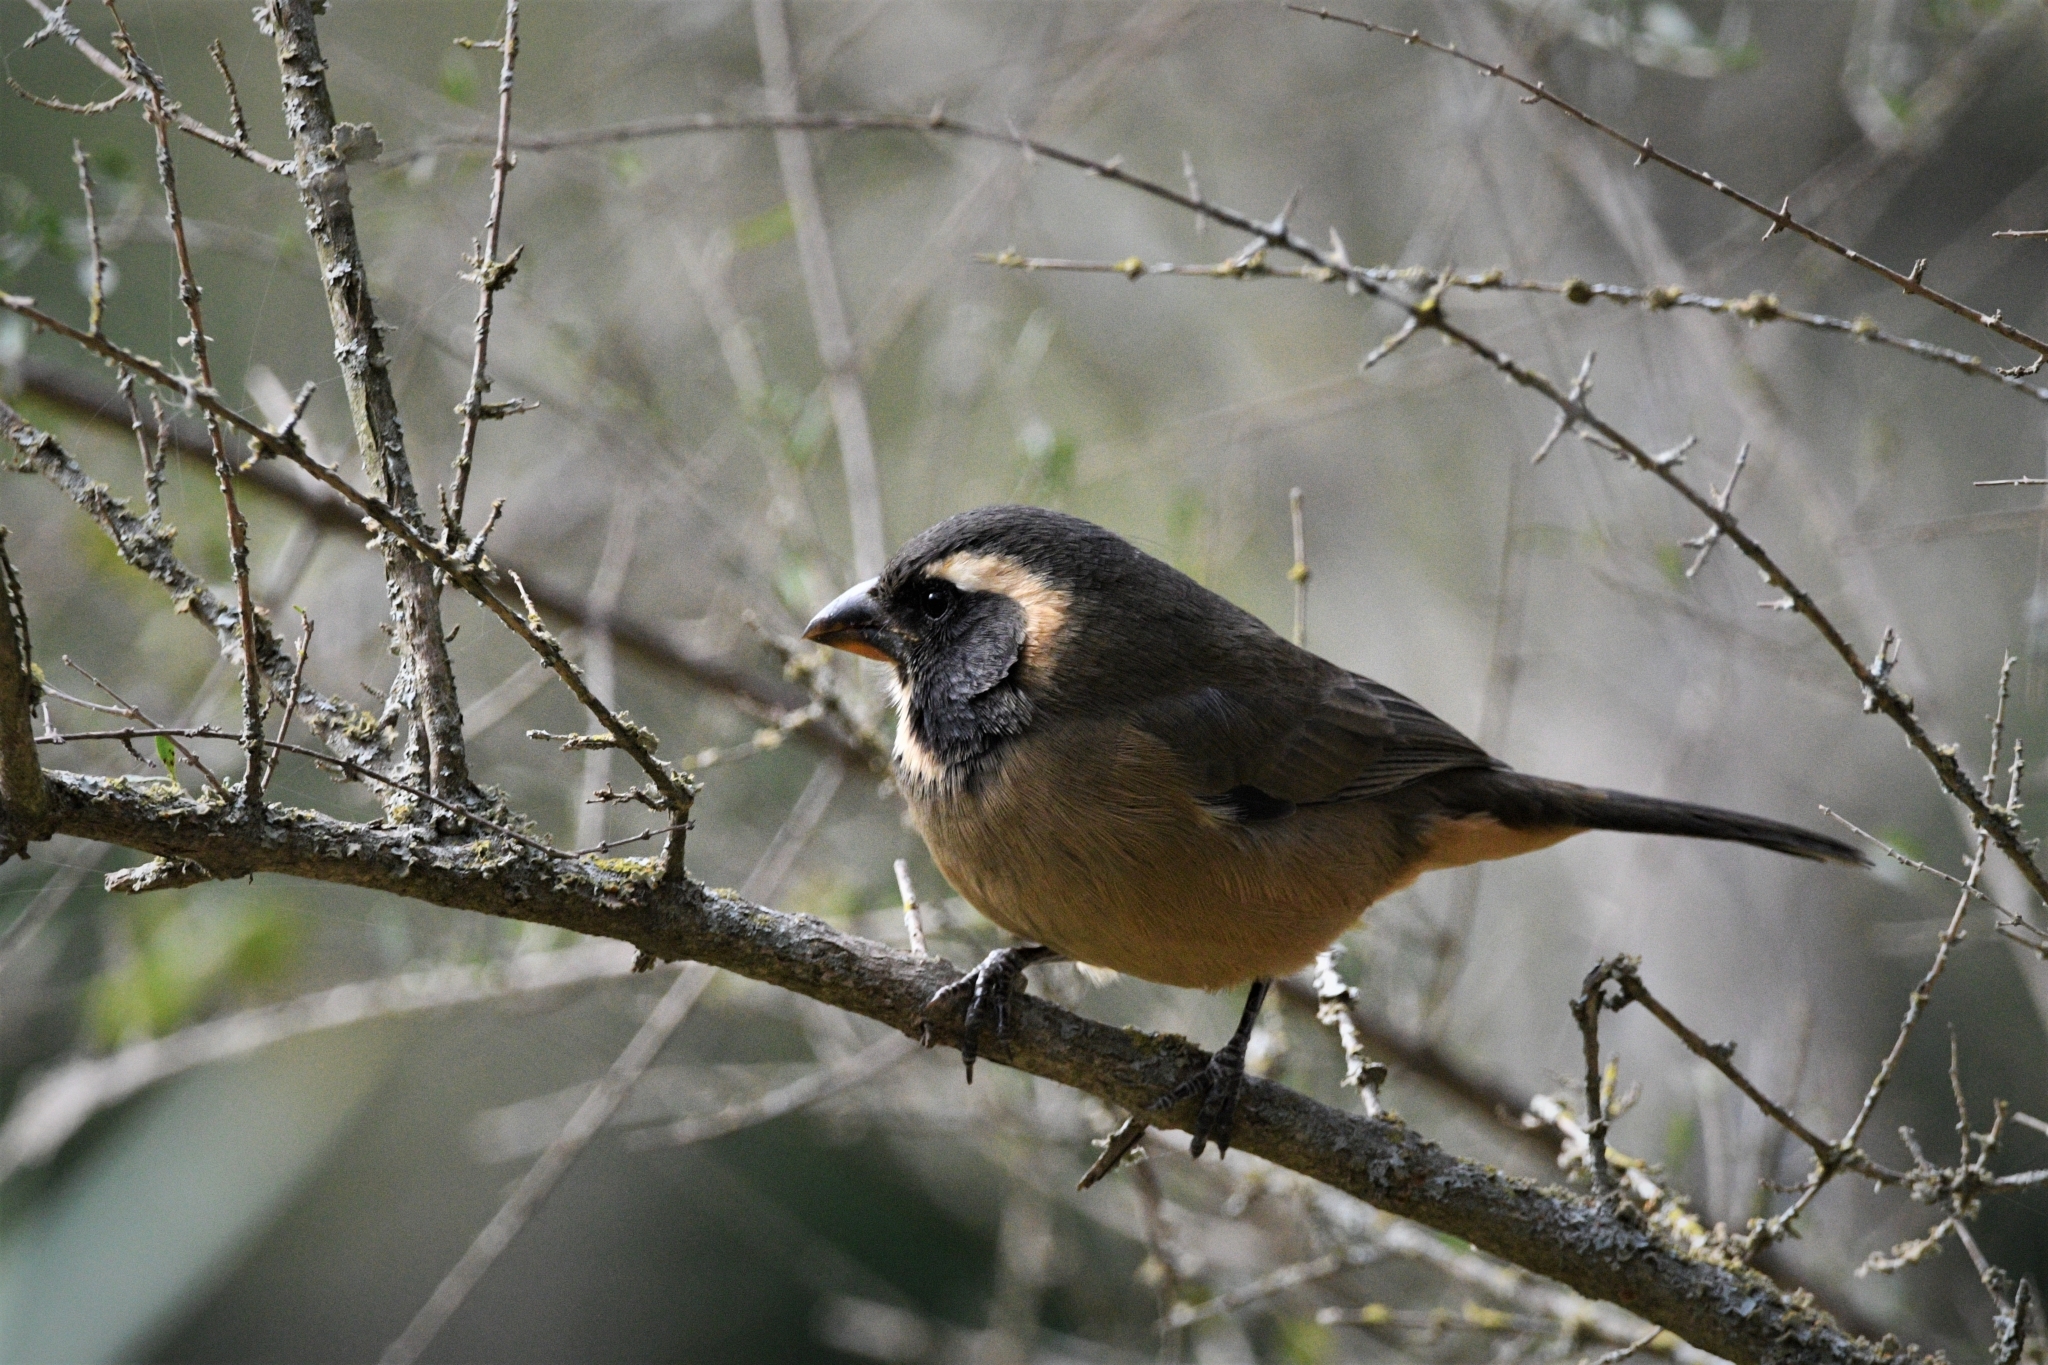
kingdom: Animalia
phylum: Chordata
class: Aves
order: Passeriformes
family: Thraupidae
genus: Saltator
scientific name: Saltator aurantiirostris
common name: Golden-billed saltator
